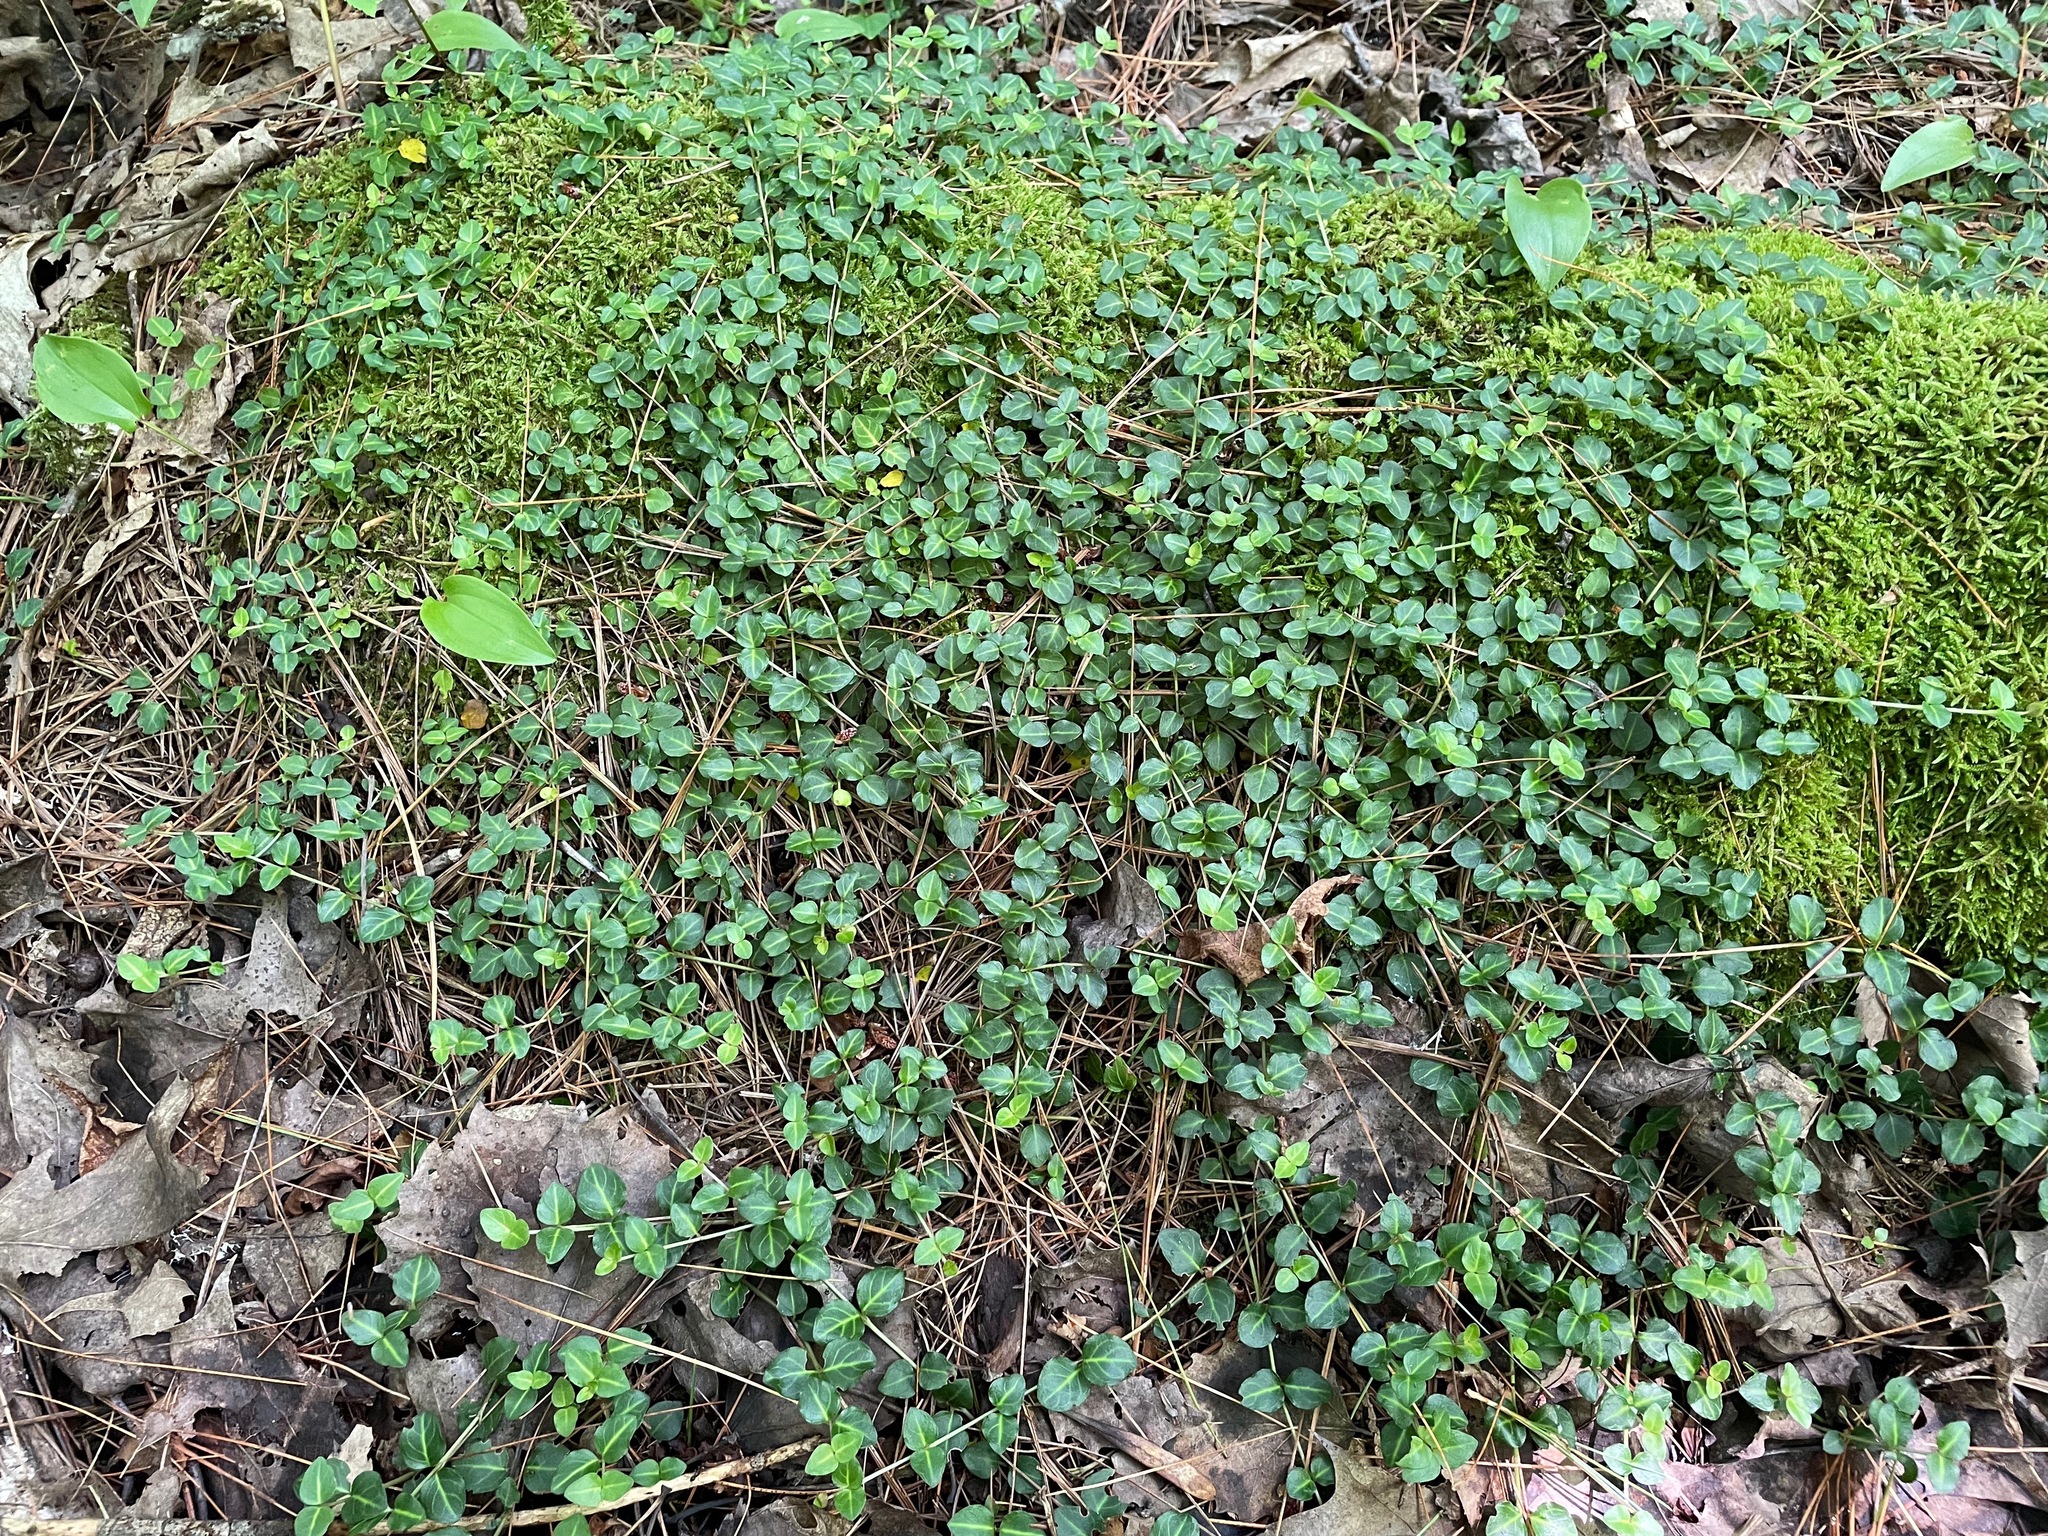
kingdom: Plantae
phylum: Tracheophyta
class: Magnoliopsida
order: Gentianales
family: Rubiaceae
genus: Mitchella
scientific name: Mitchella repens
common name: Partridge-berry
